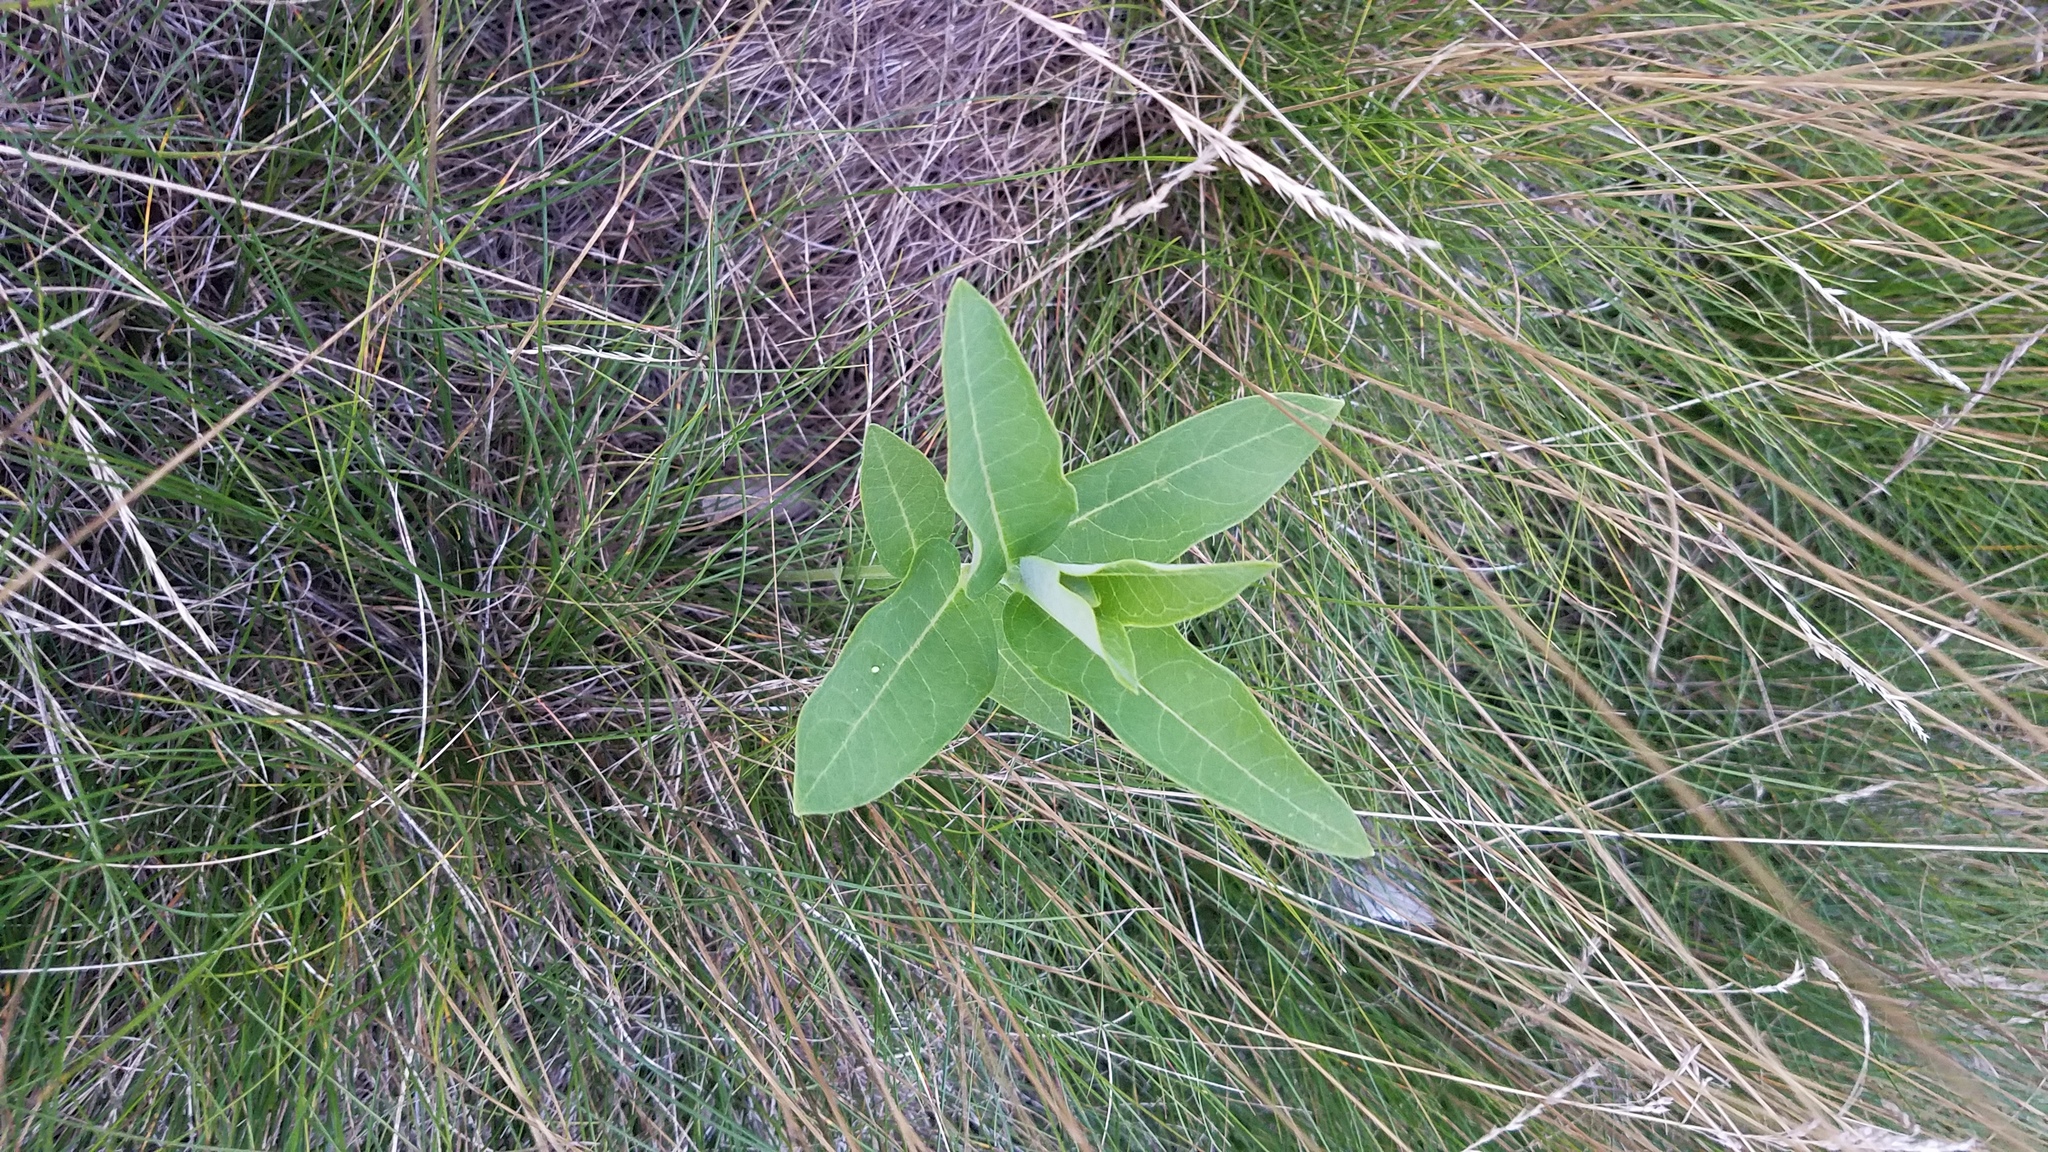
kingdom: Plantae
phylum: Tracheophyta
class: Magnoliopsida
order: Gentianales
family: Apocynaceae
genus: Asclepias
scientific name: Asclepias syriaca
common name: Common milkweed
